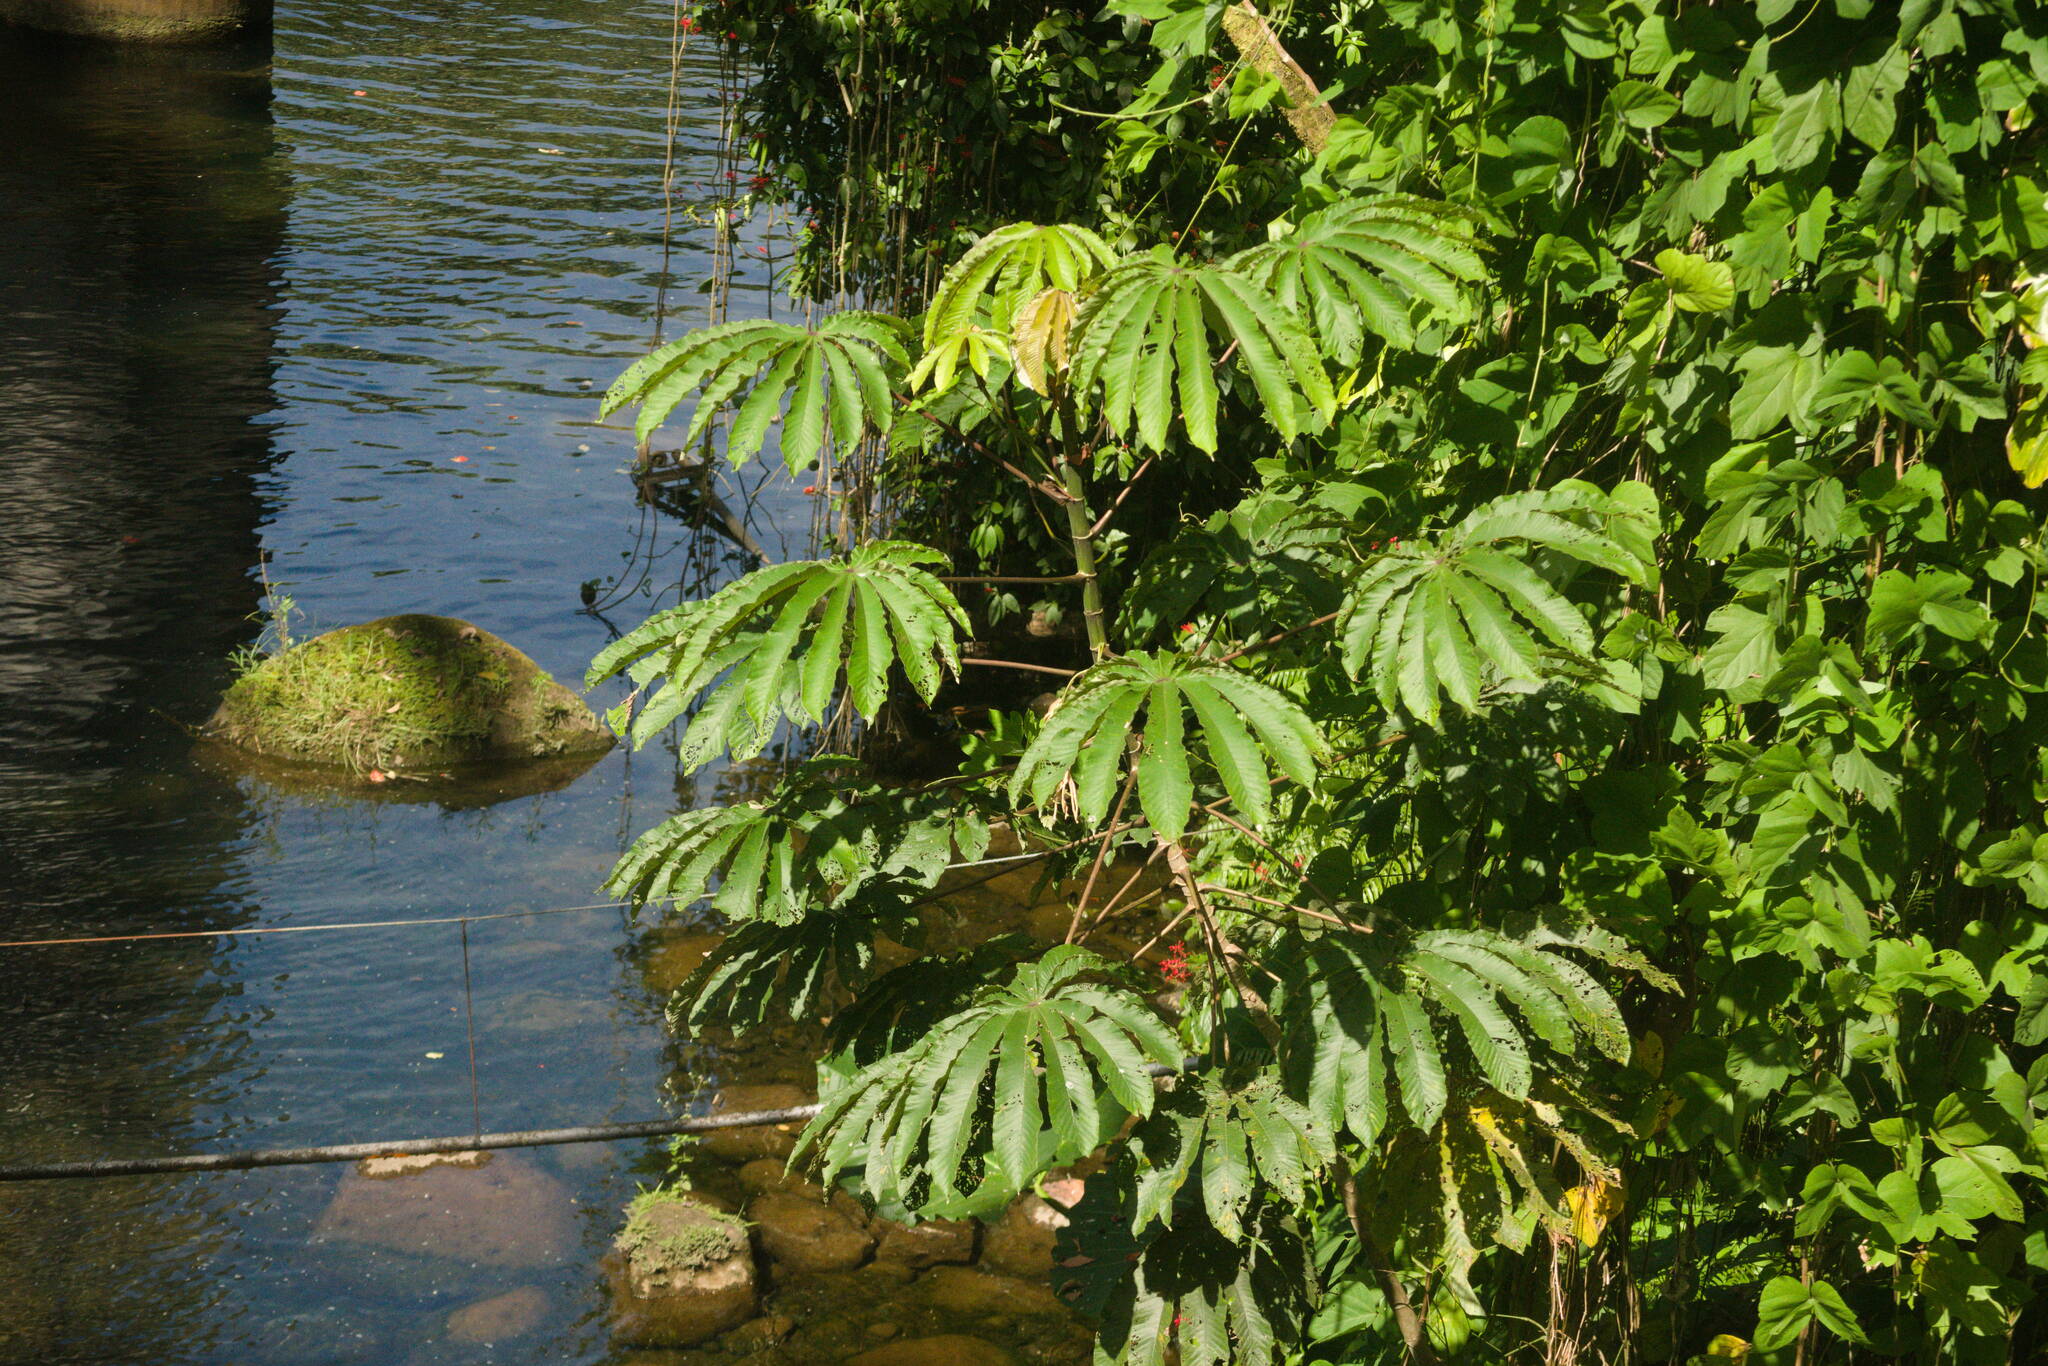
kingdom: Plantae
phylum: Tracheophyta
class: Magnoliopsida
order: Rosales
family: Urticaceae
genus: Cecropia
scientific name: Cecropia obtusifolia
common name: Trumpet tree
